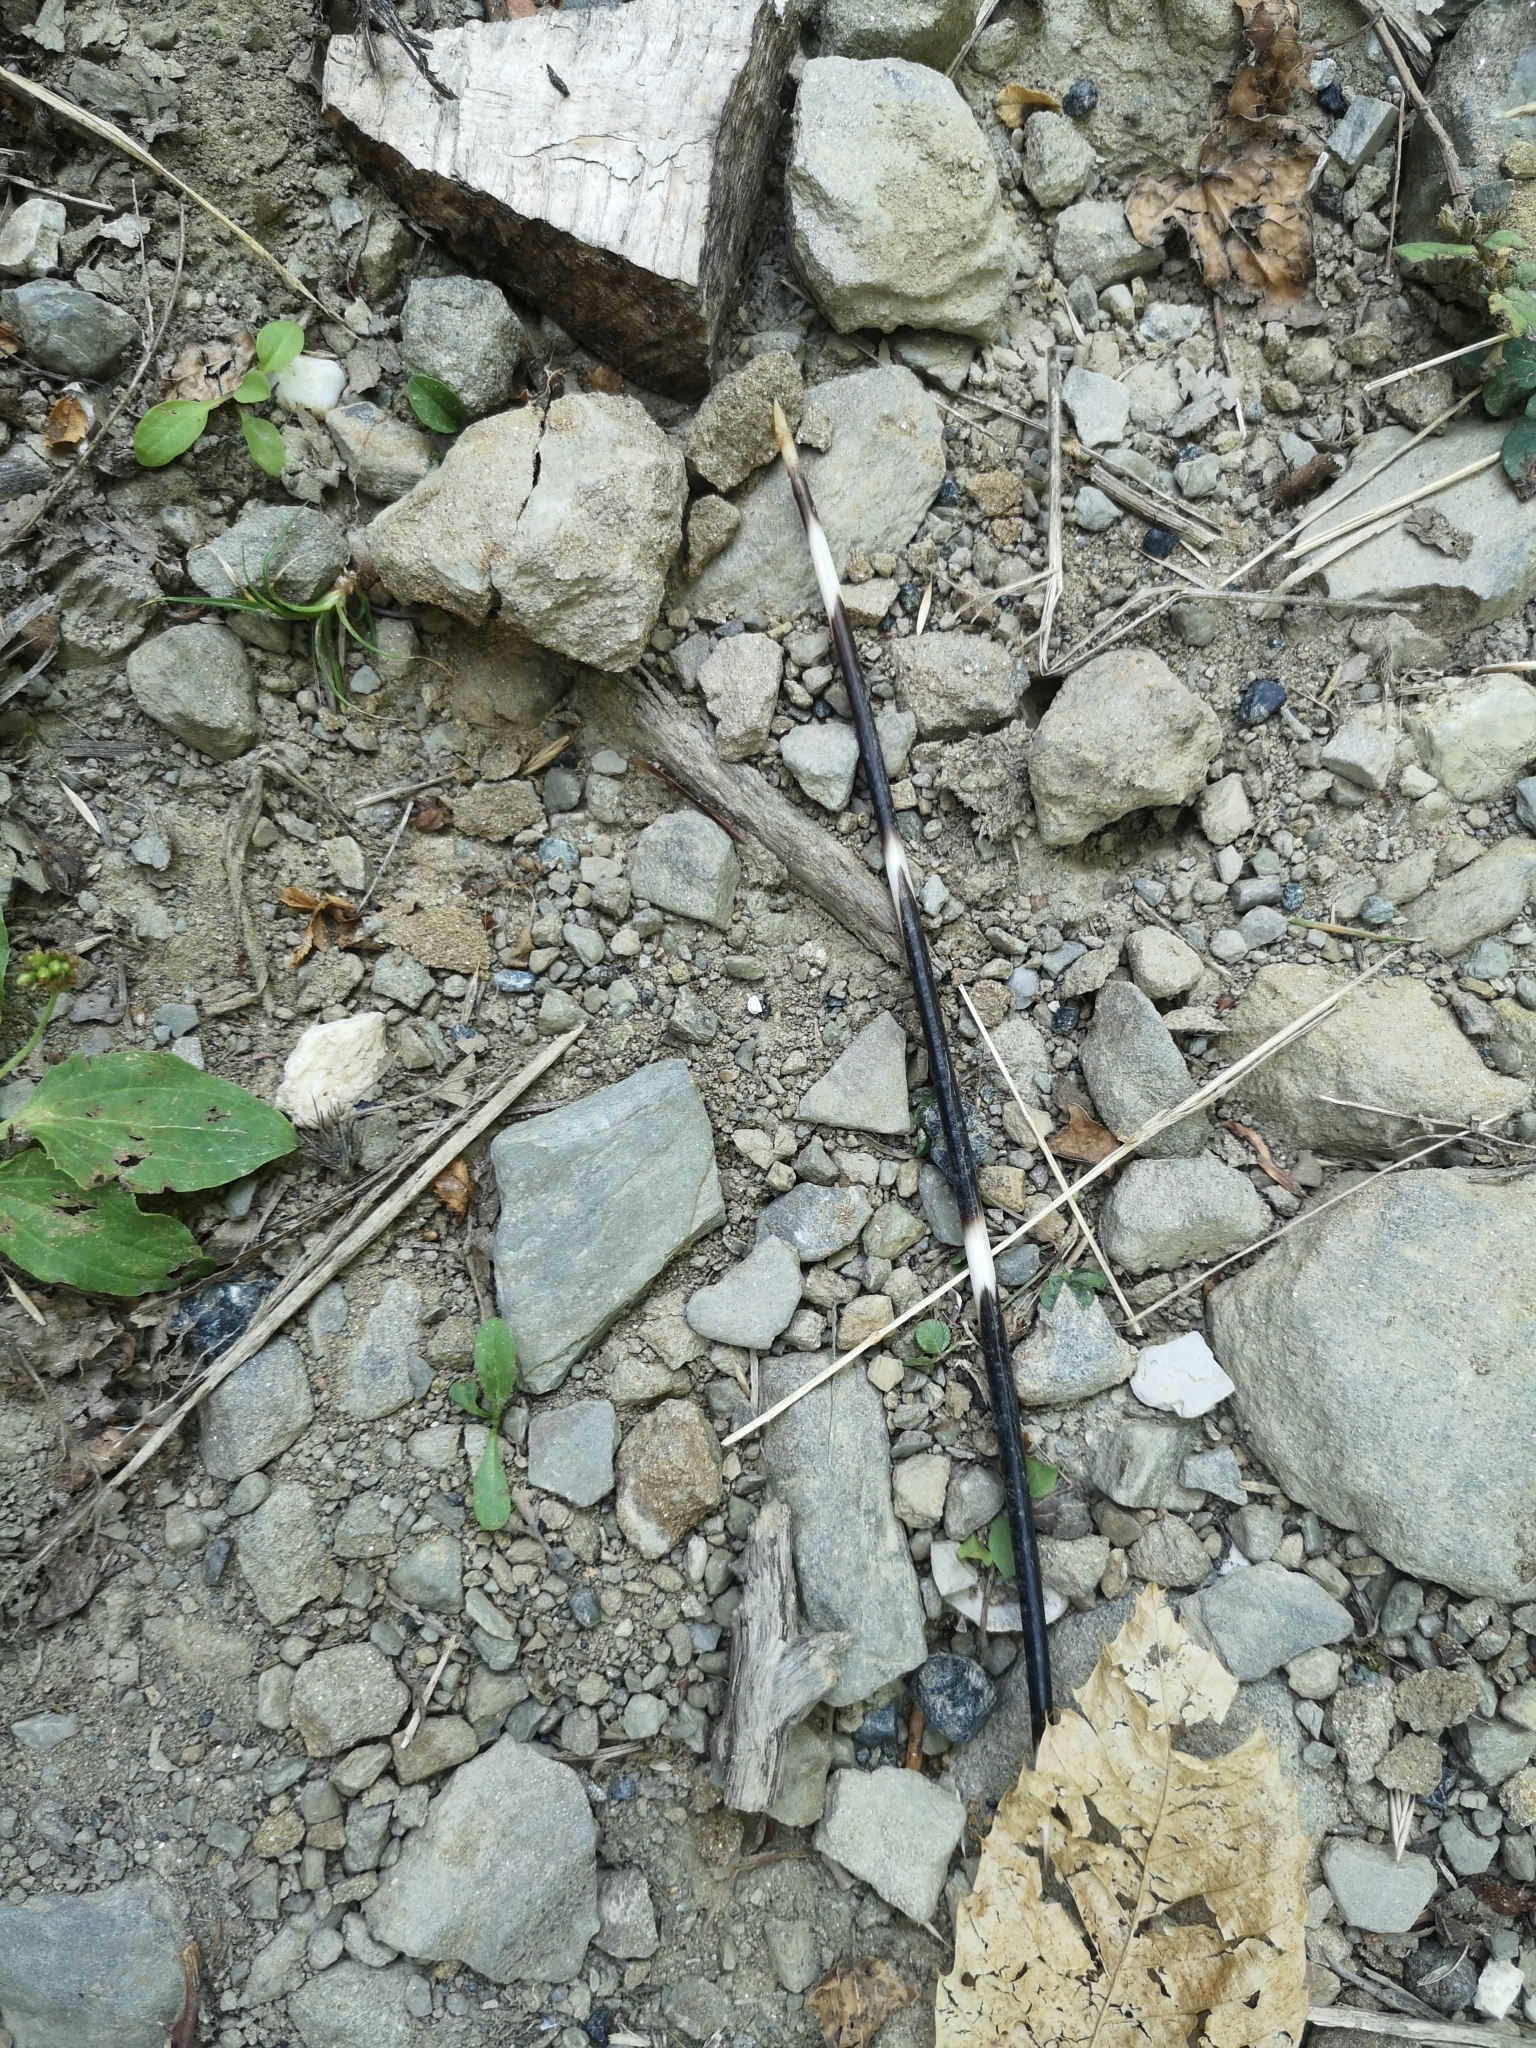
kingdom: Animalia
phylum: Chordata
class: Mammalia
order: Rodentia
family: Hystricidae
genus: Hystrix
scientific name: Hystrix cristata
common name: Crested porcupine
